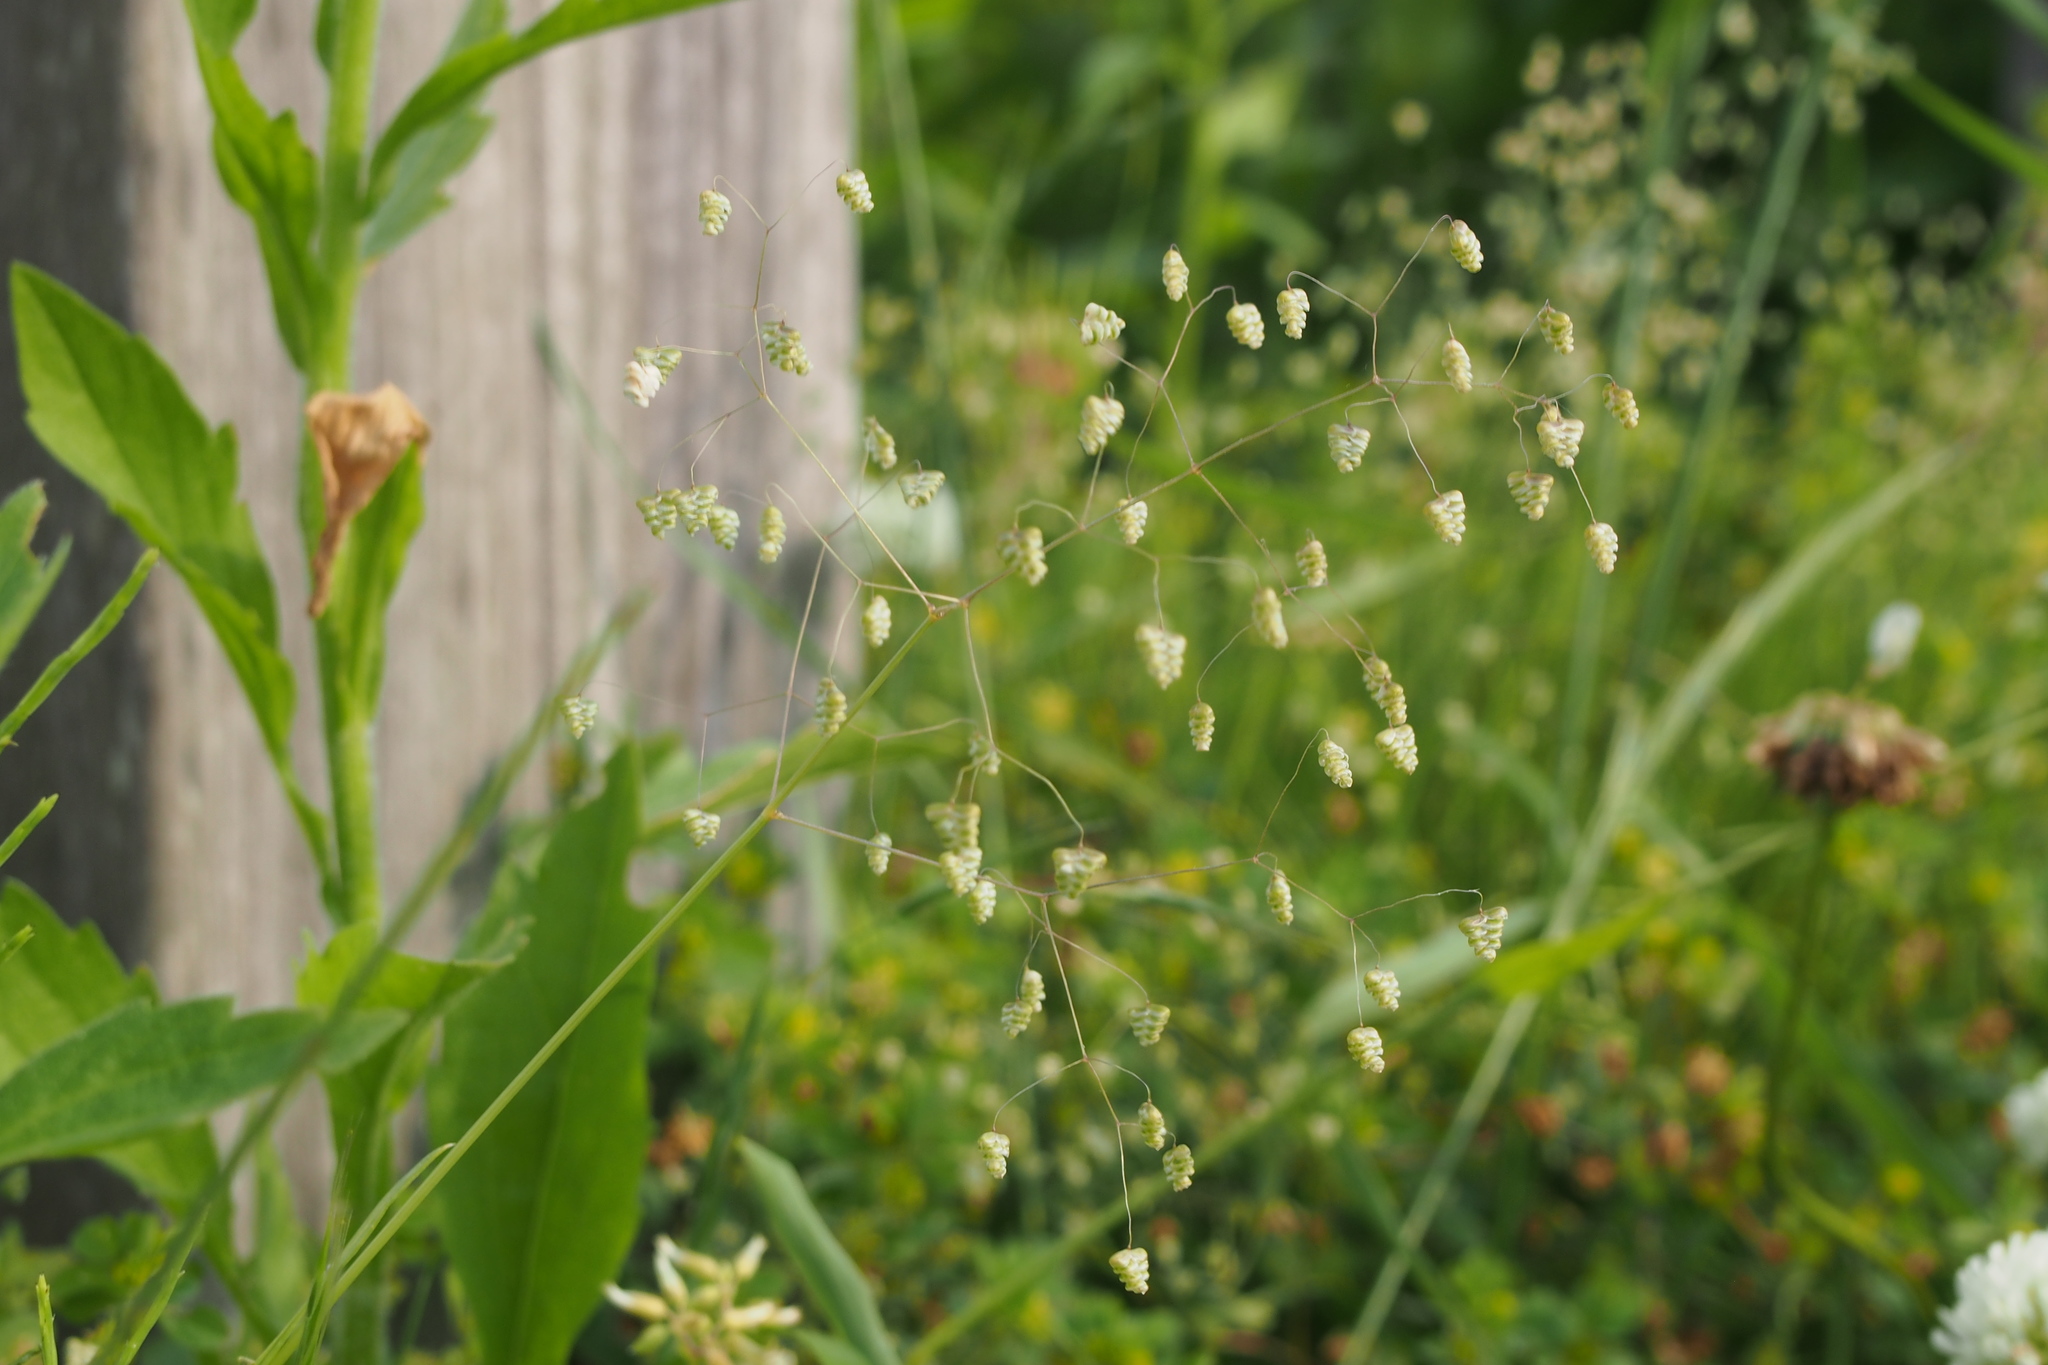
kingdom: Plantae
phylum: Tracheophyta
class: Liliopsida
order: Poales
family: Poaceae
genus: Briza
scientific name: Briza minor
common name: Lesser quaking-grass
